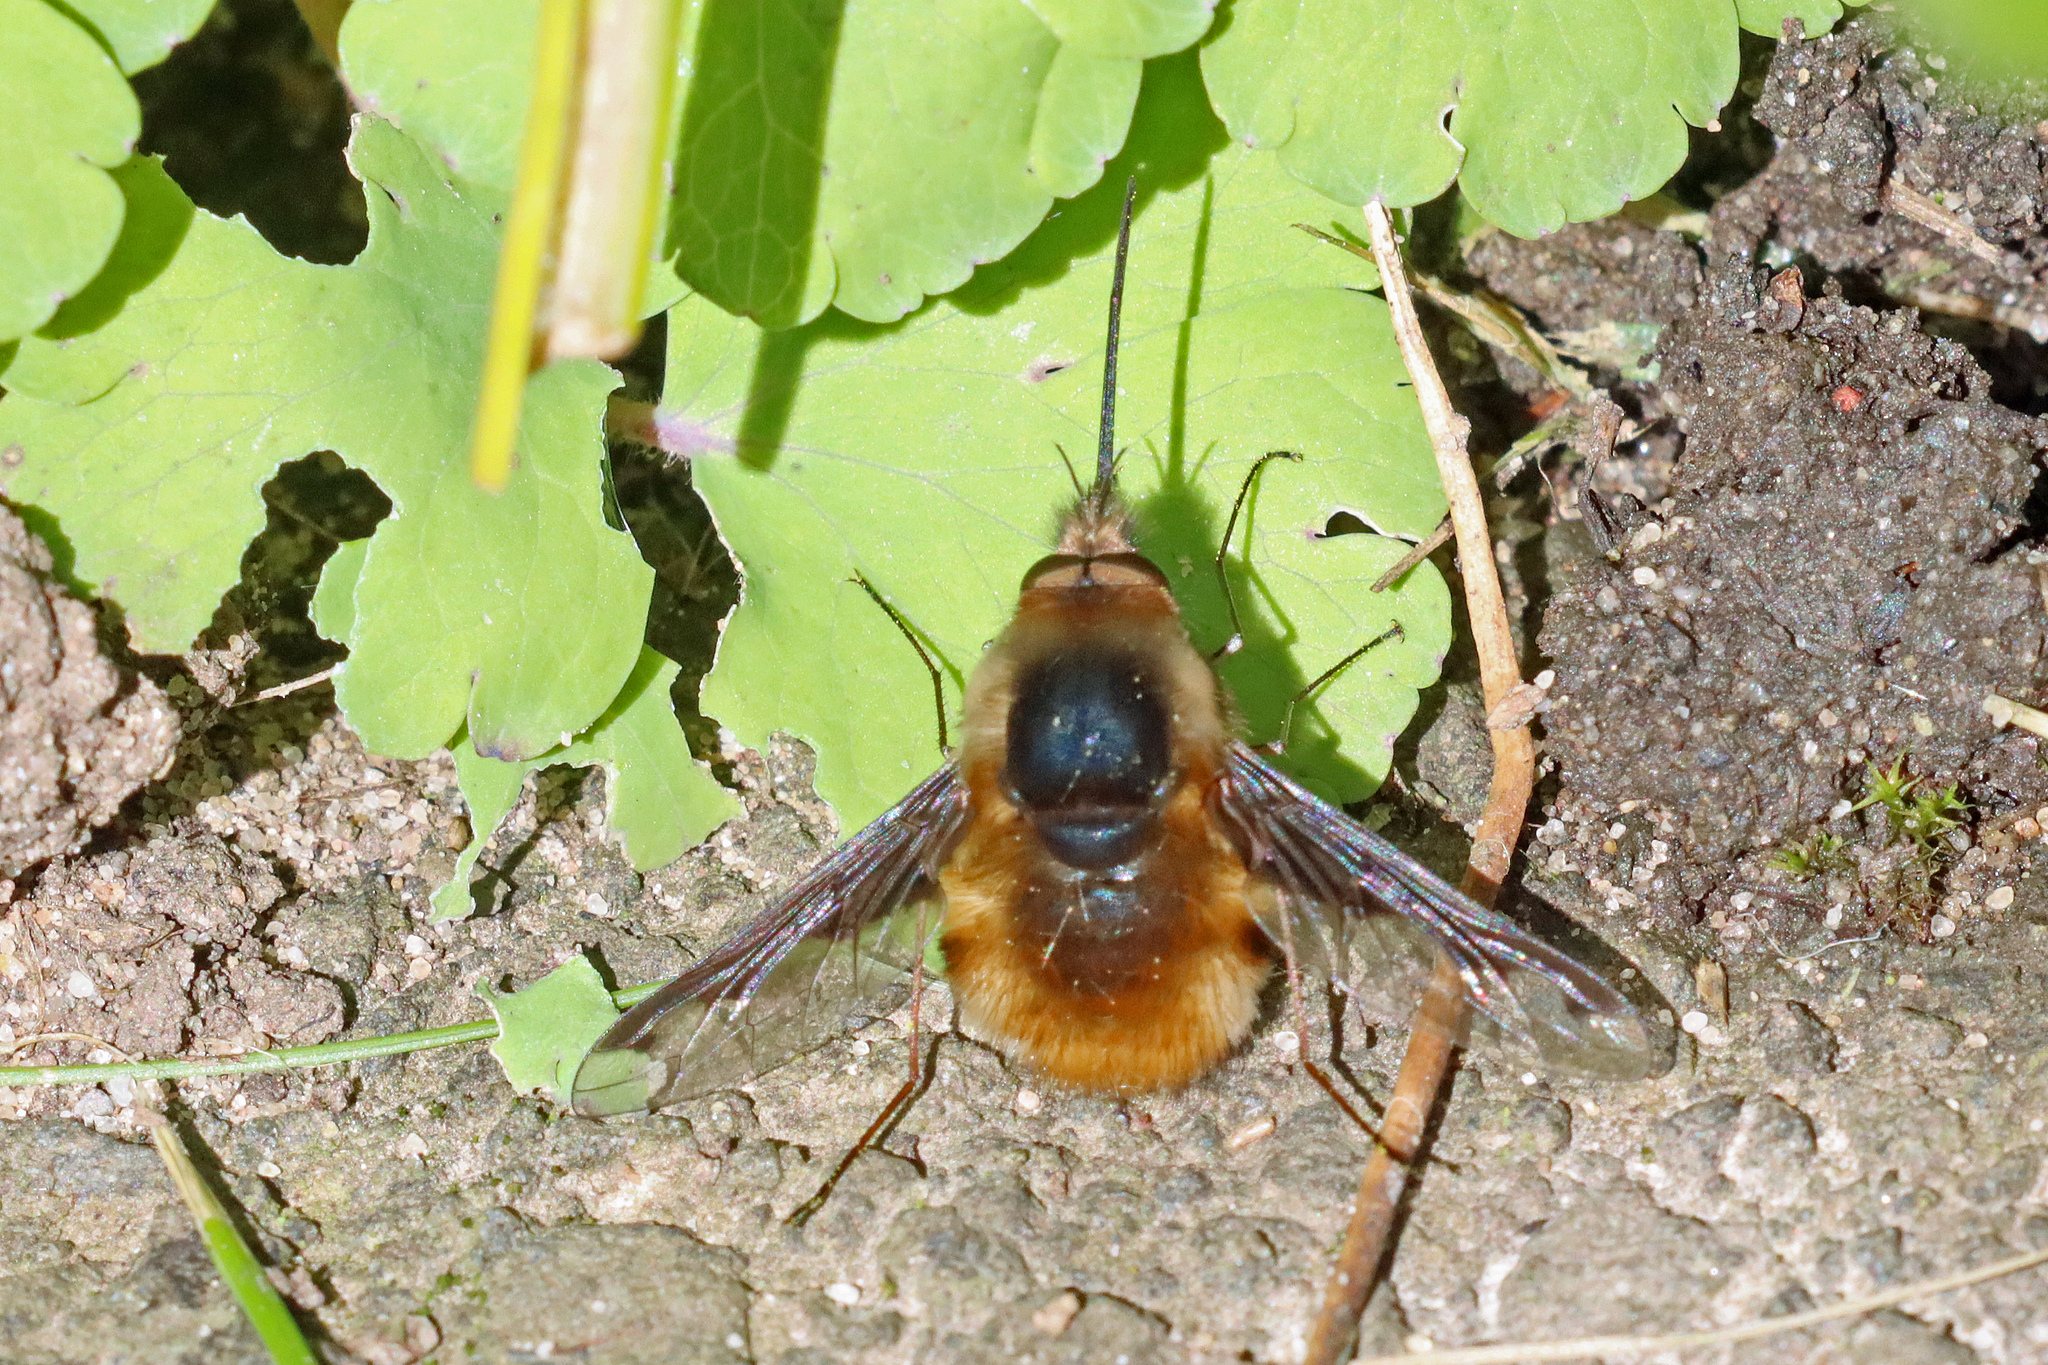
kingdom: Animalia
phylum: Arthropoda
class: Insecta
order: Diptera
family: Bombyliidae
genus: Bombylius
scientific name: Bombylius major
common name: Bee fly
